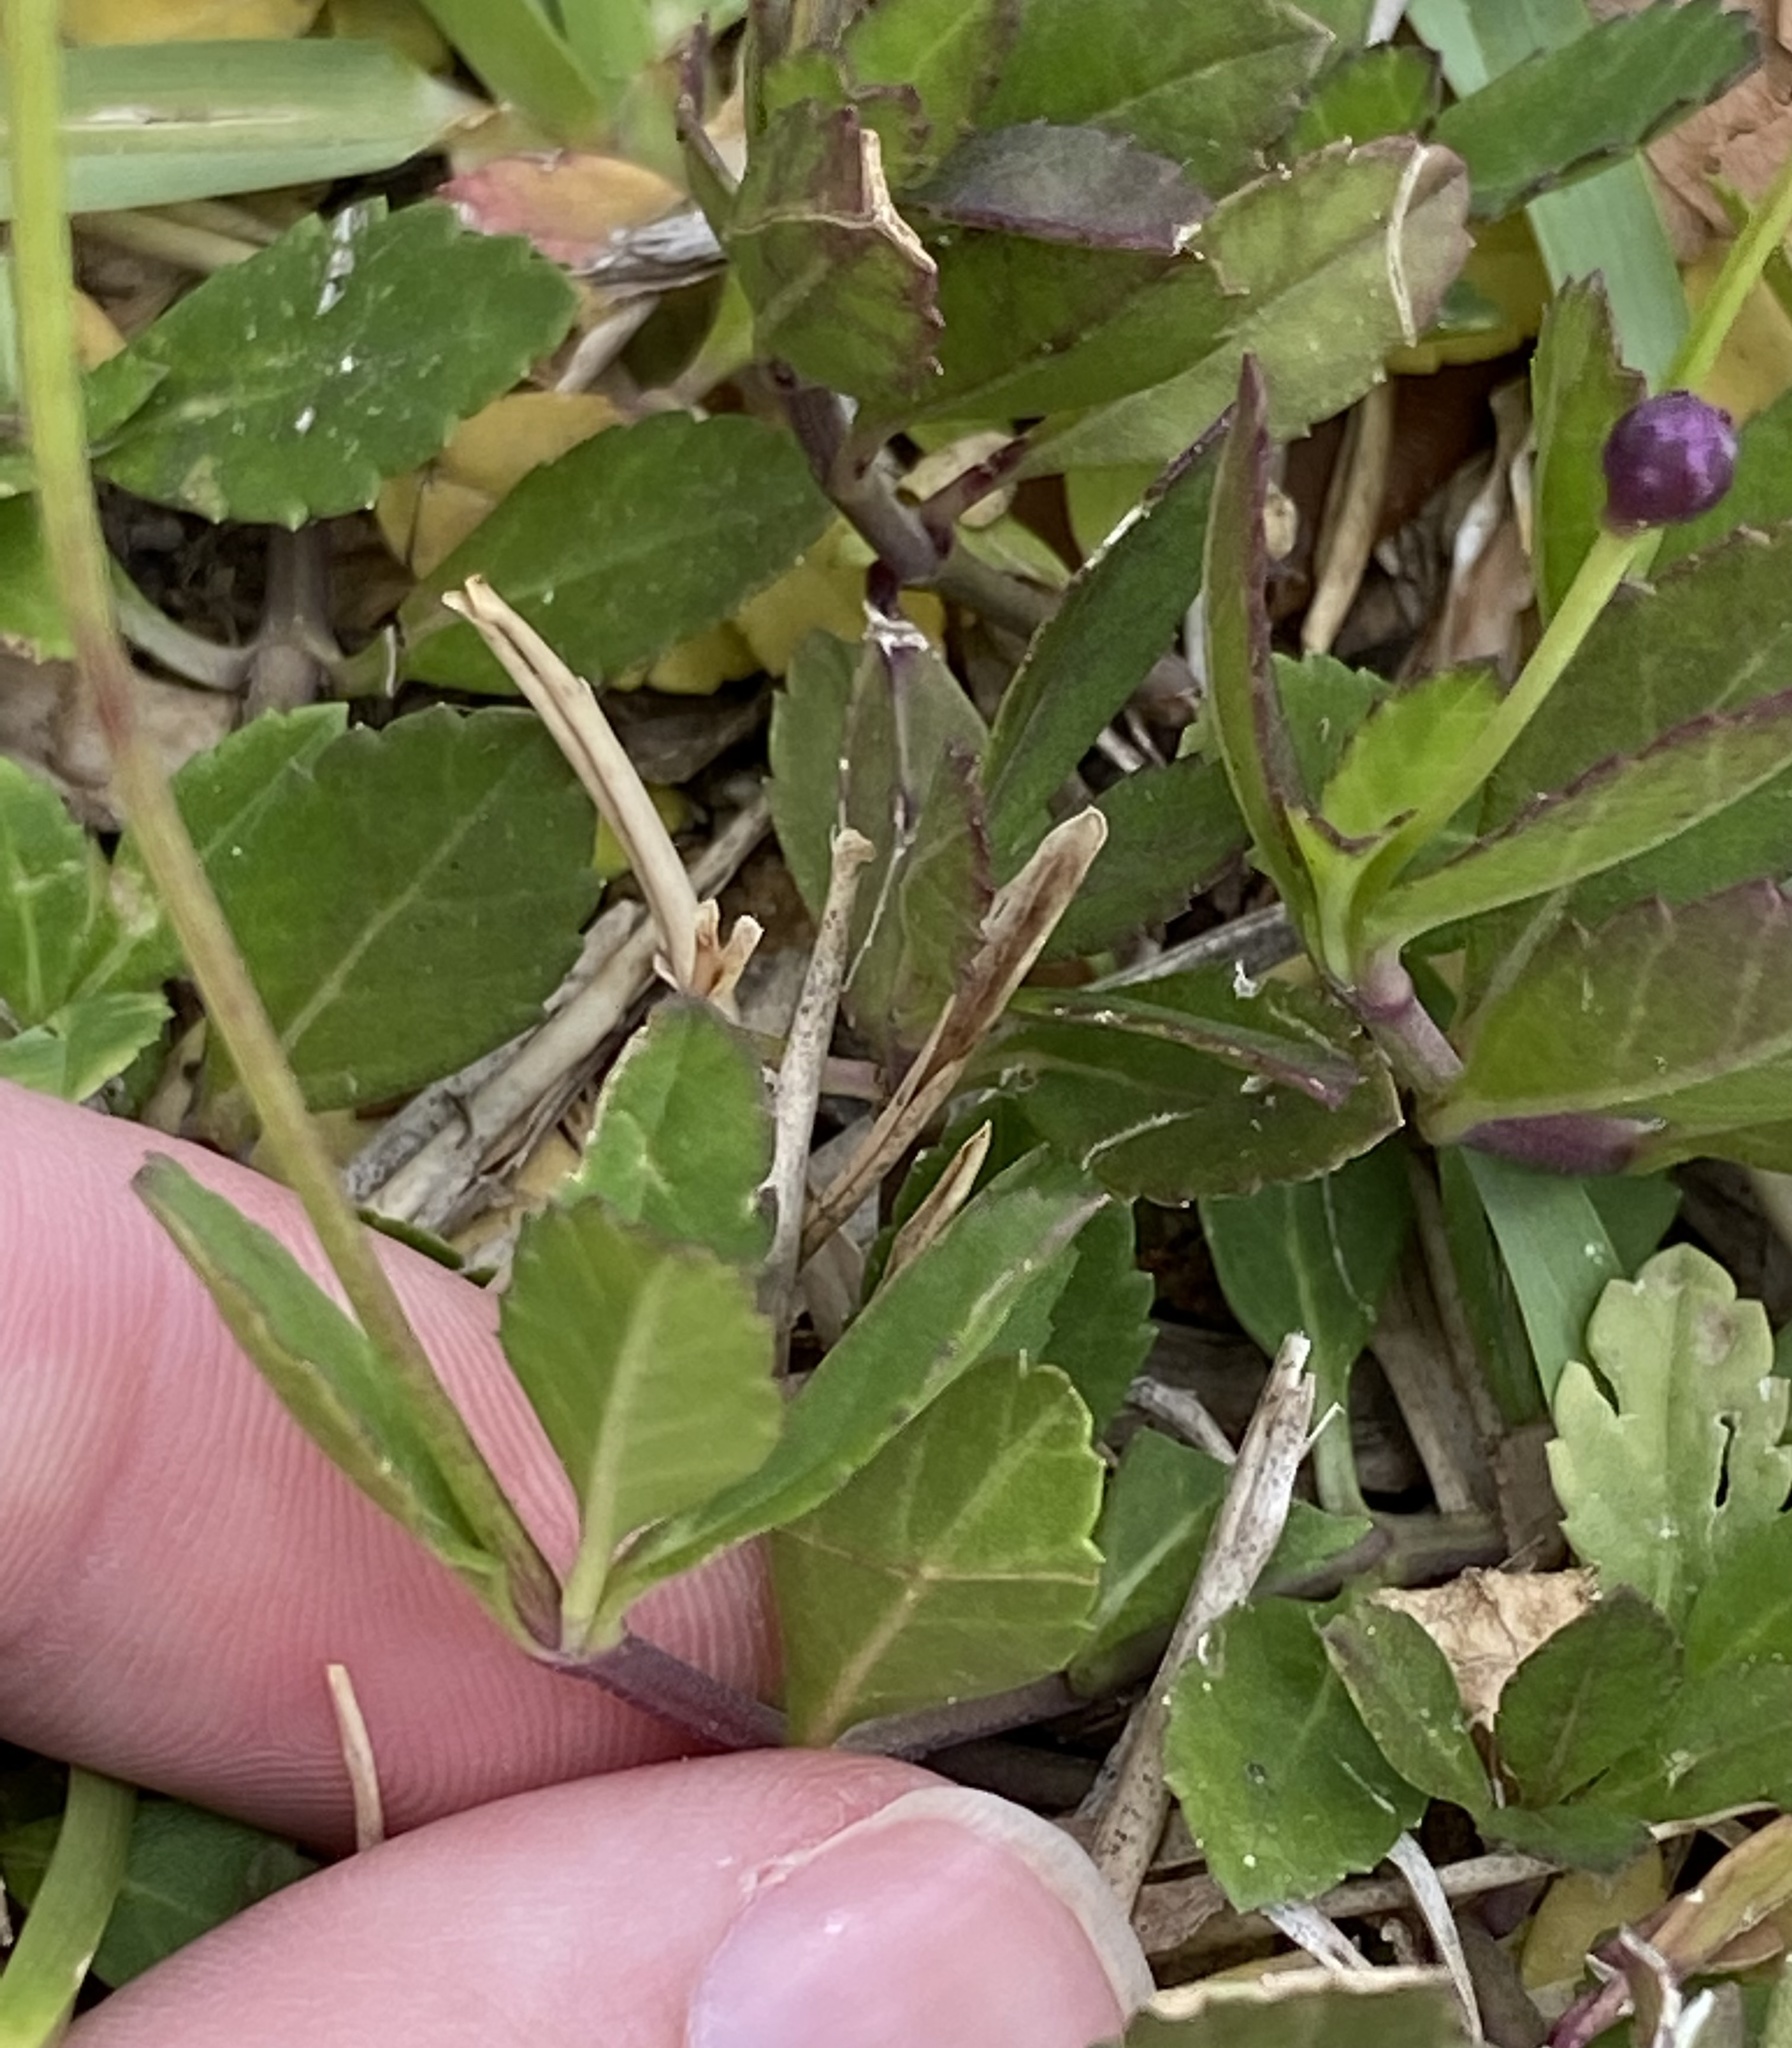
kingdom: Plantae
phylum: Tracheophyta
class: Magnoliopsida
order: Lamiales
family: Verbenaceae
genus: Phyla
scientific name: Phyla nodiflora
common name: Frogfruit
